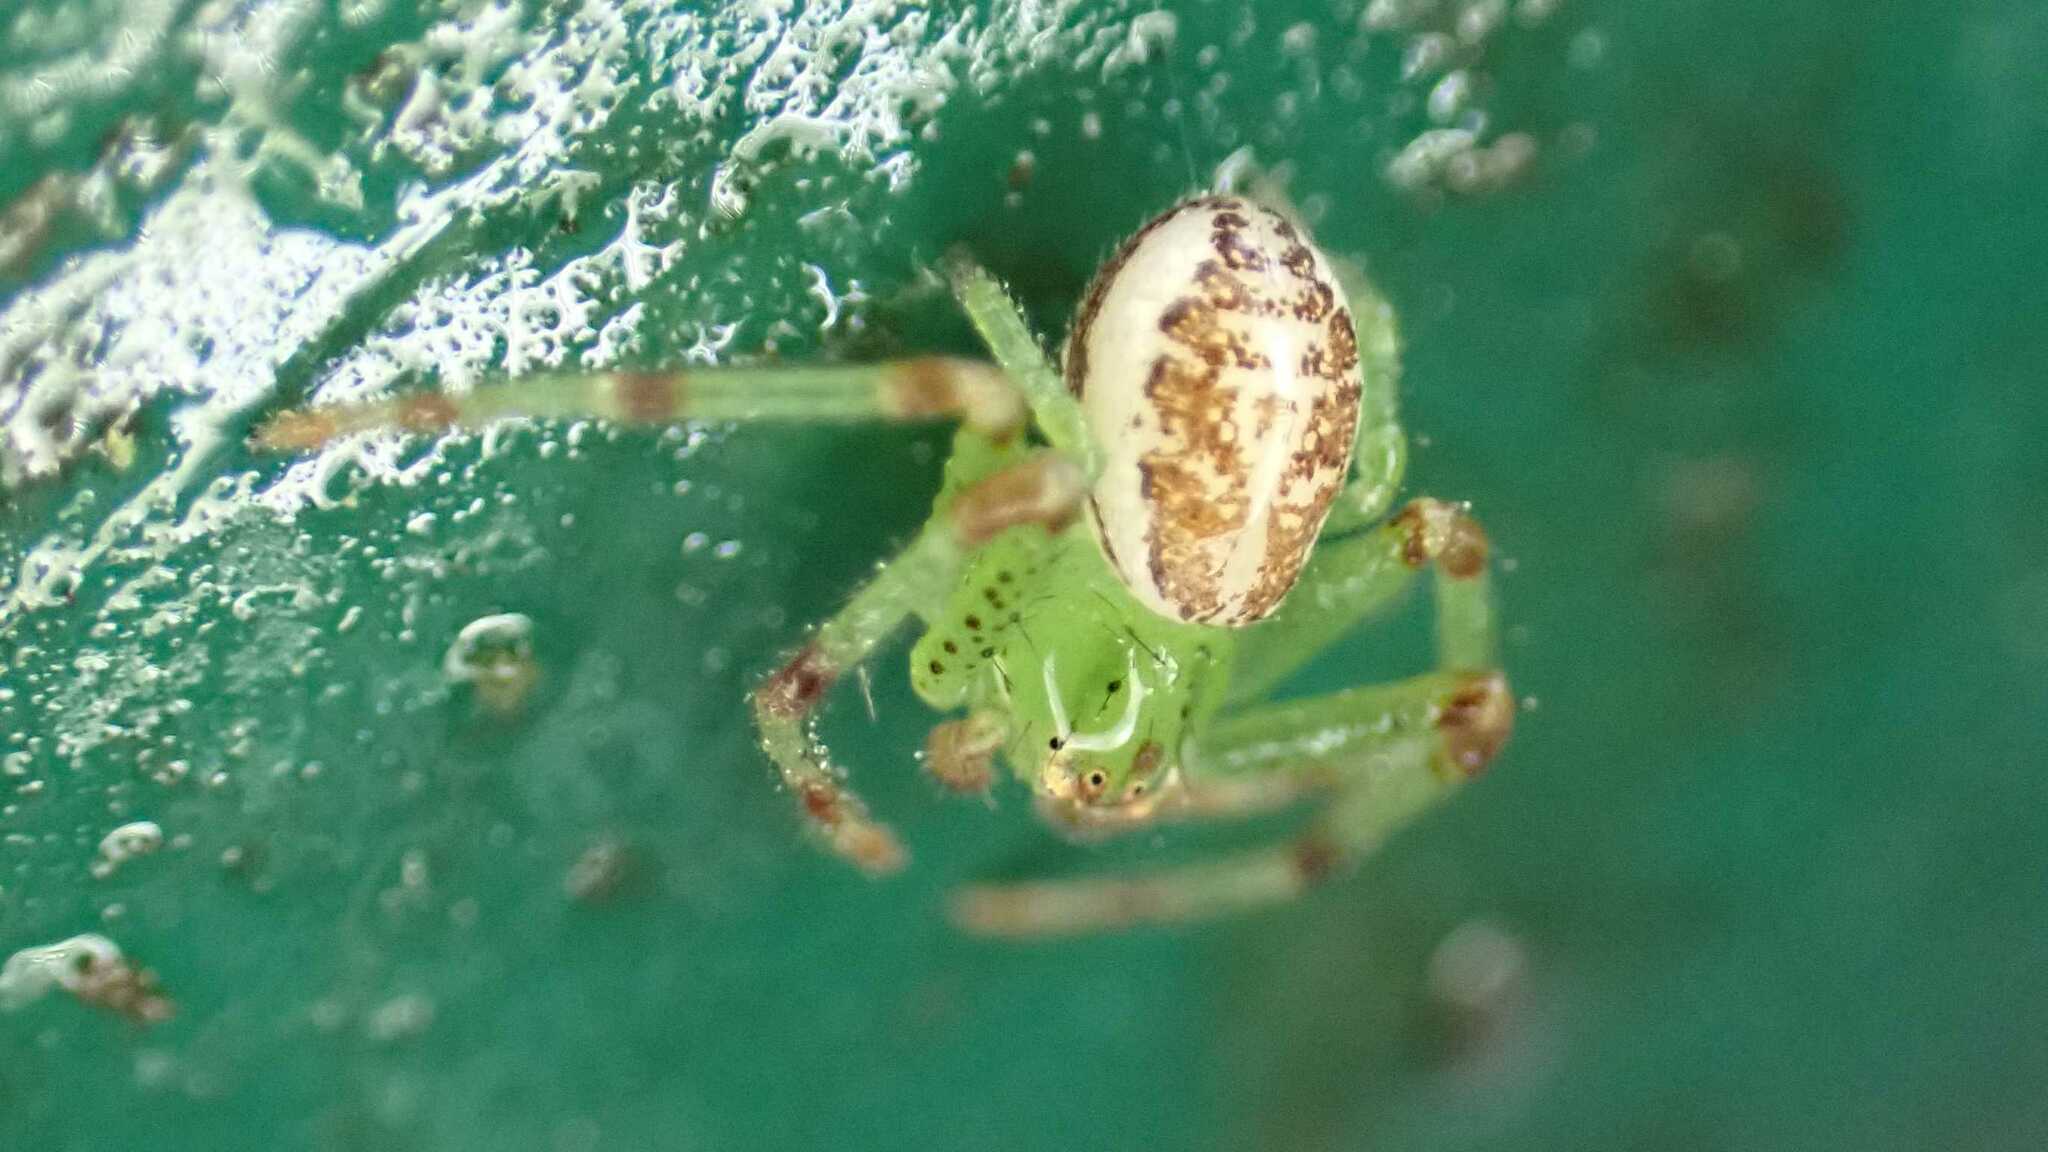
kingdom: Animalia
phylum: Arthropoda
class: Arachnida
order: Araneae
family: Thomisidae
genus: Diaea
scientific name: Diaea dorsata
